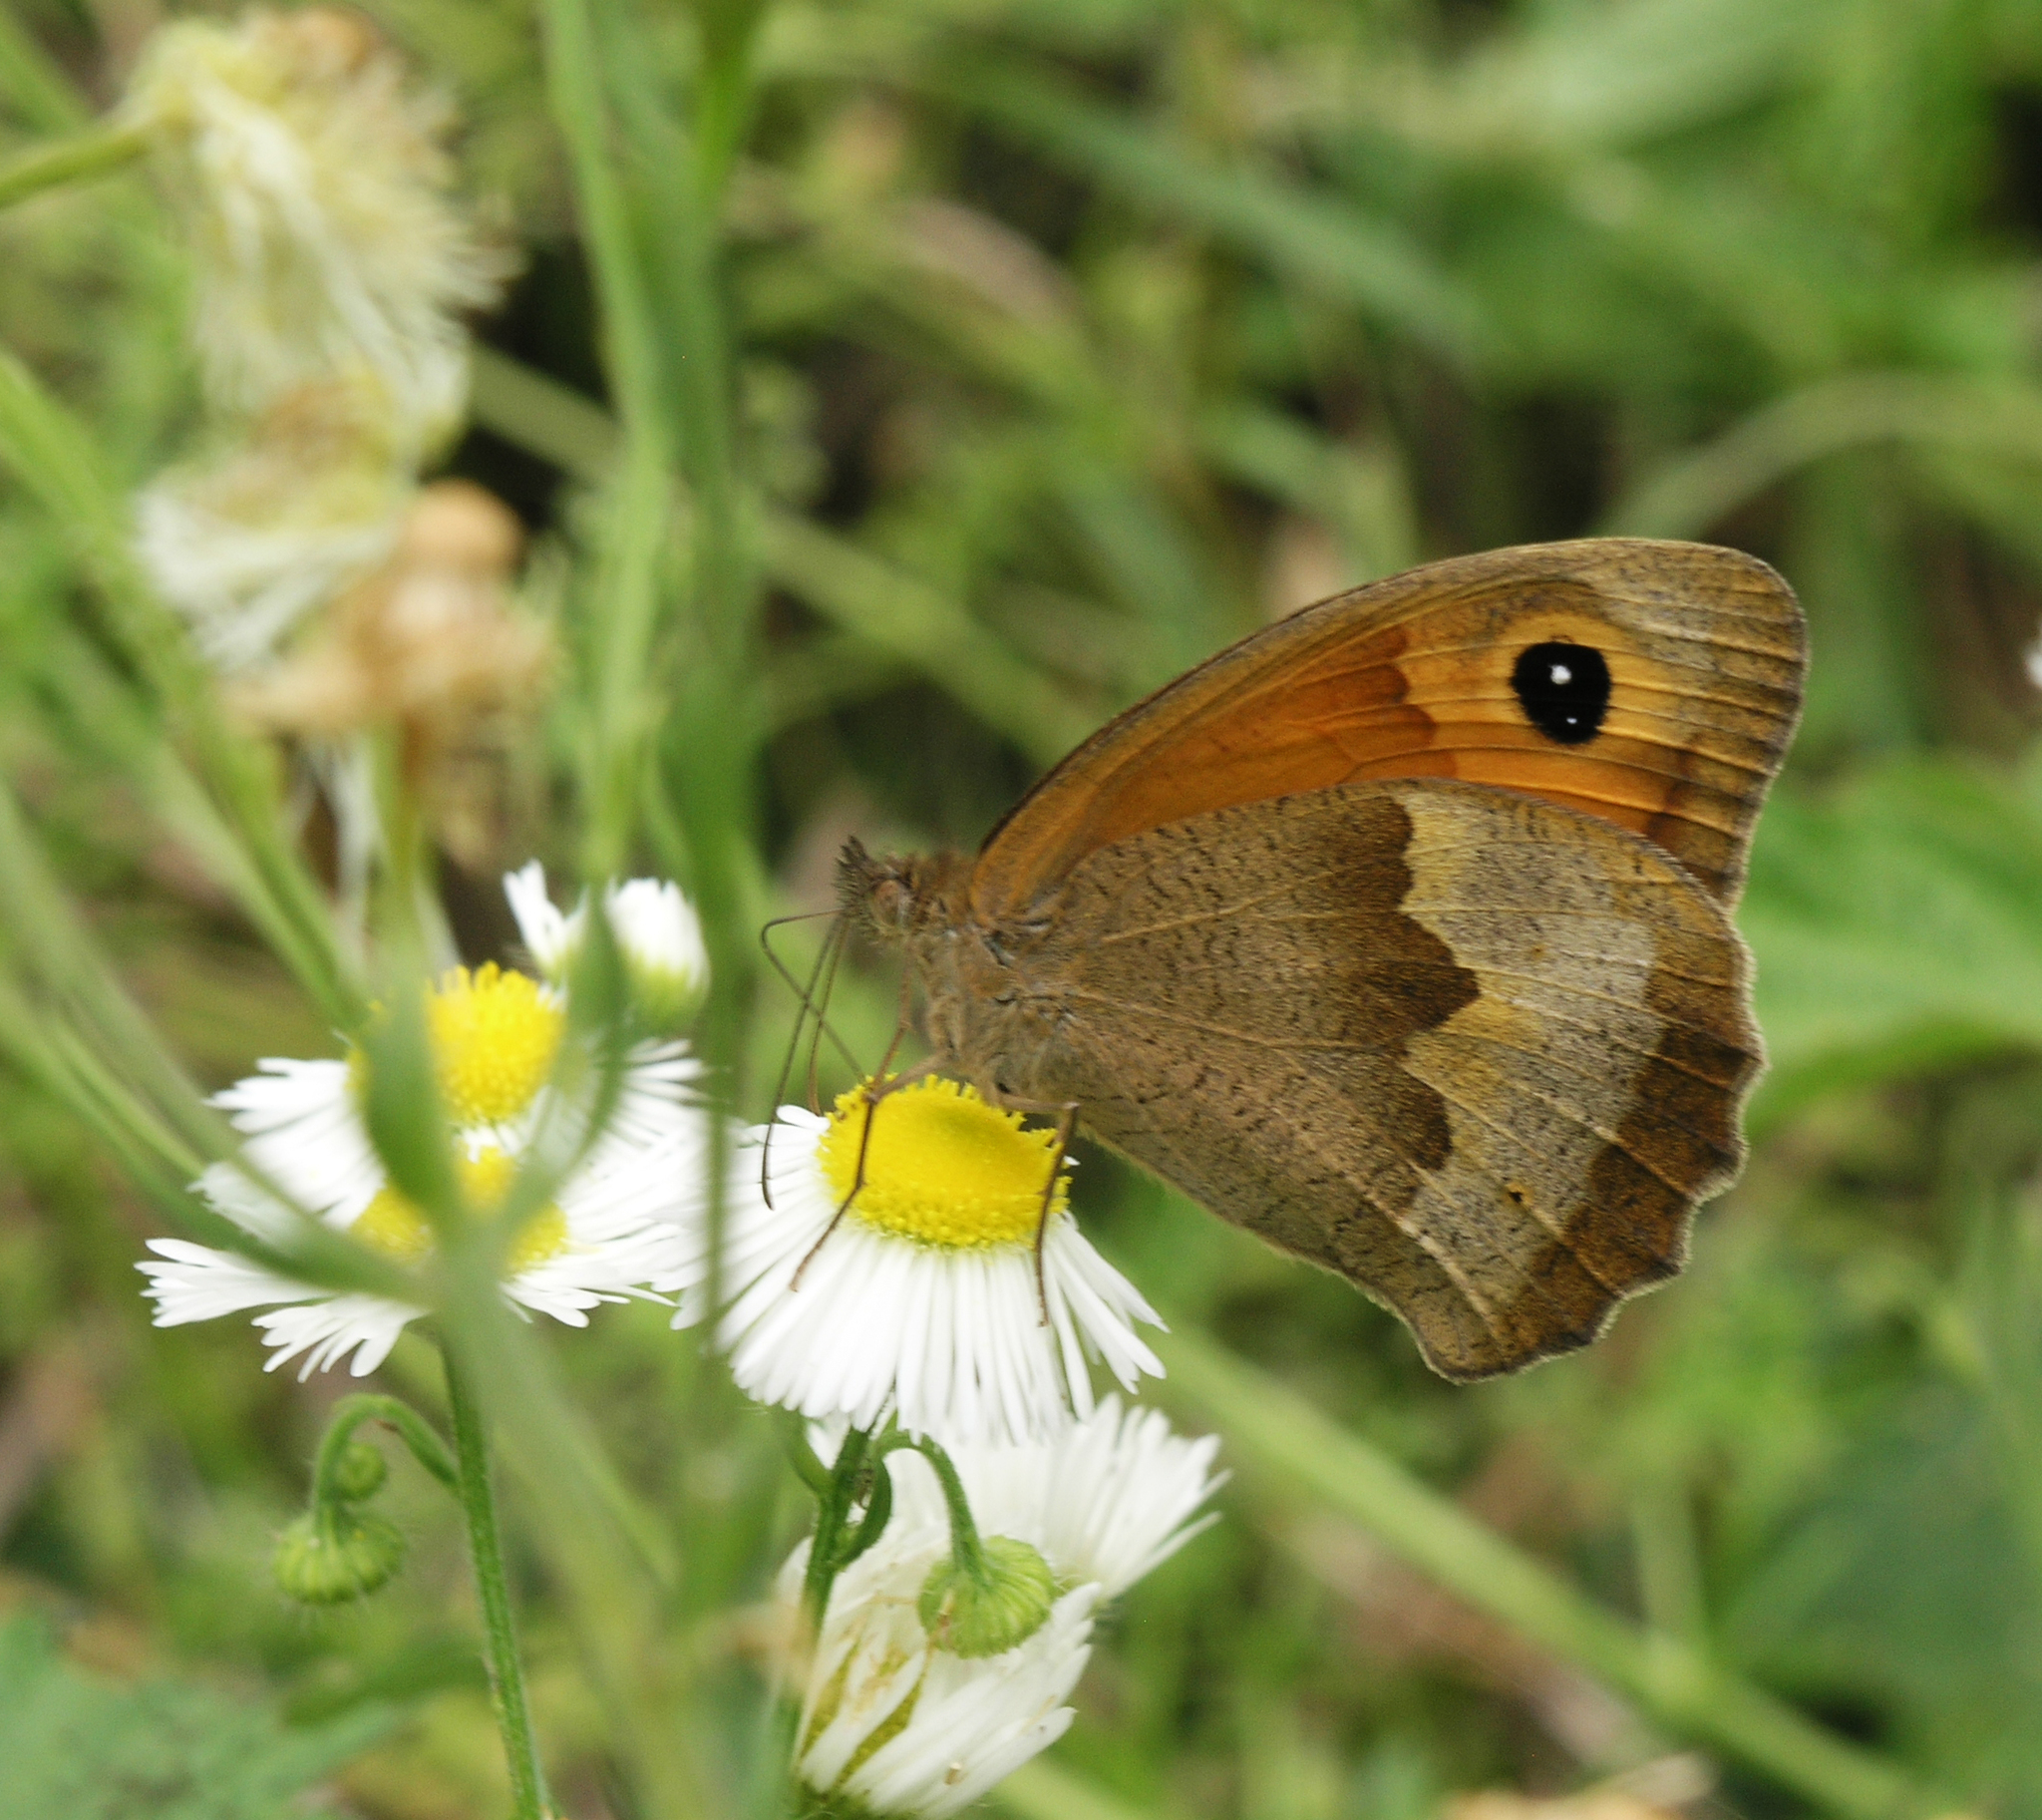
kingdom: Animalia
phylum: Arthropoda
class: Insecta
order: Lepidoptera
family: Nymphalidae
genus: Maniola
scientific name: Maniola jurtina
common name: Meadow brown
